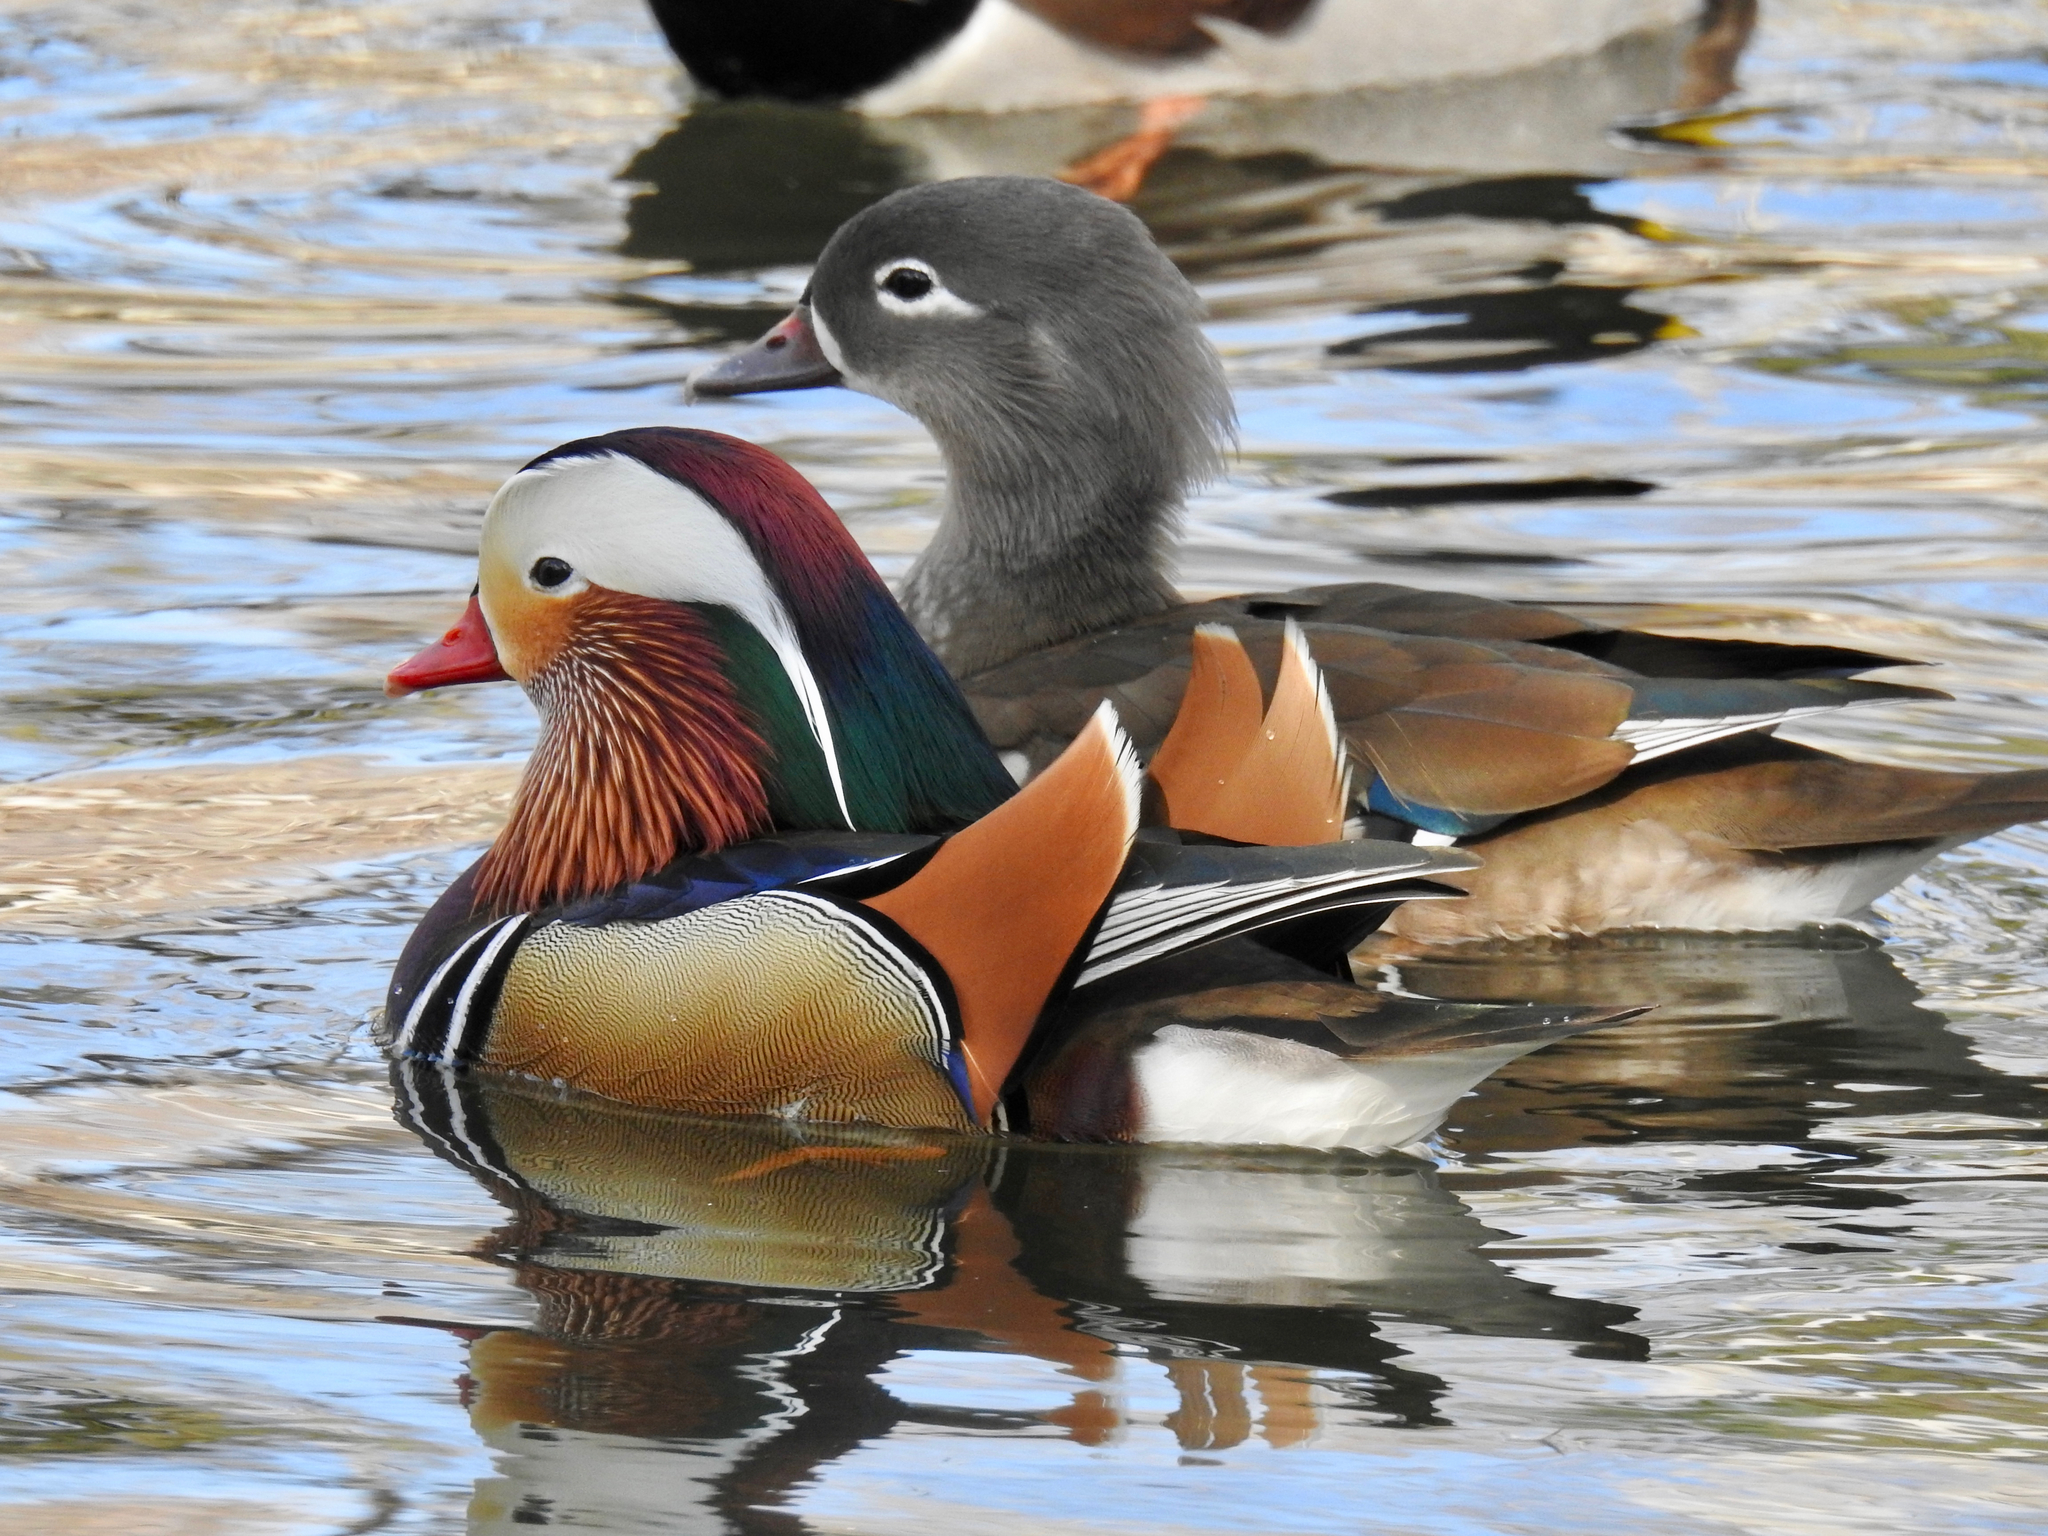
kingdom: Animalia
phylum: Chordata
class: Aves
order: Anseriformes
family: Anatidae
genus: Aix
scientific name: Aix galericulata
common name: Mandarin duck
